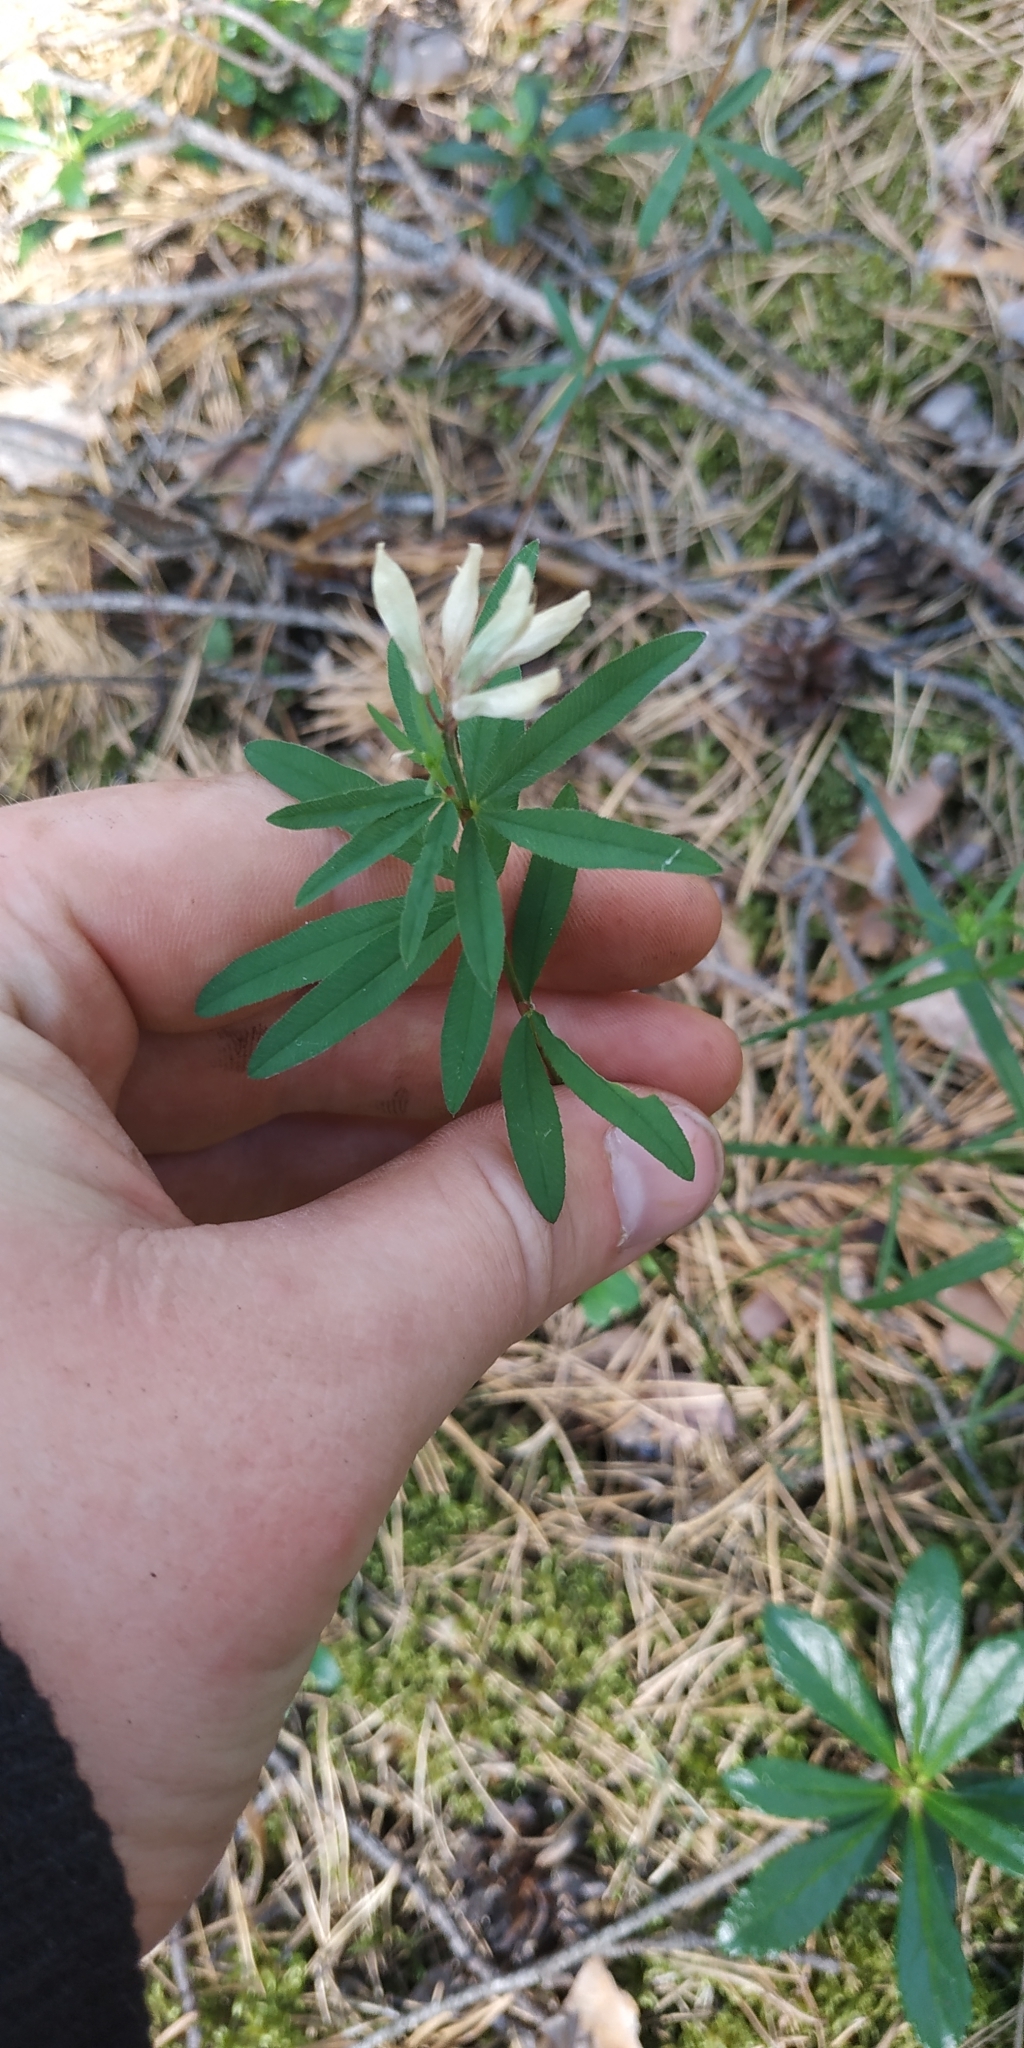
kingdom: Plantae
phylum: Tracheophyta
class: Magnoliopsida
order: Fabales
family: Fabaceae
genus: Trifolium
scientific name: Trifolium lupinaster
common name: Lupine clover
